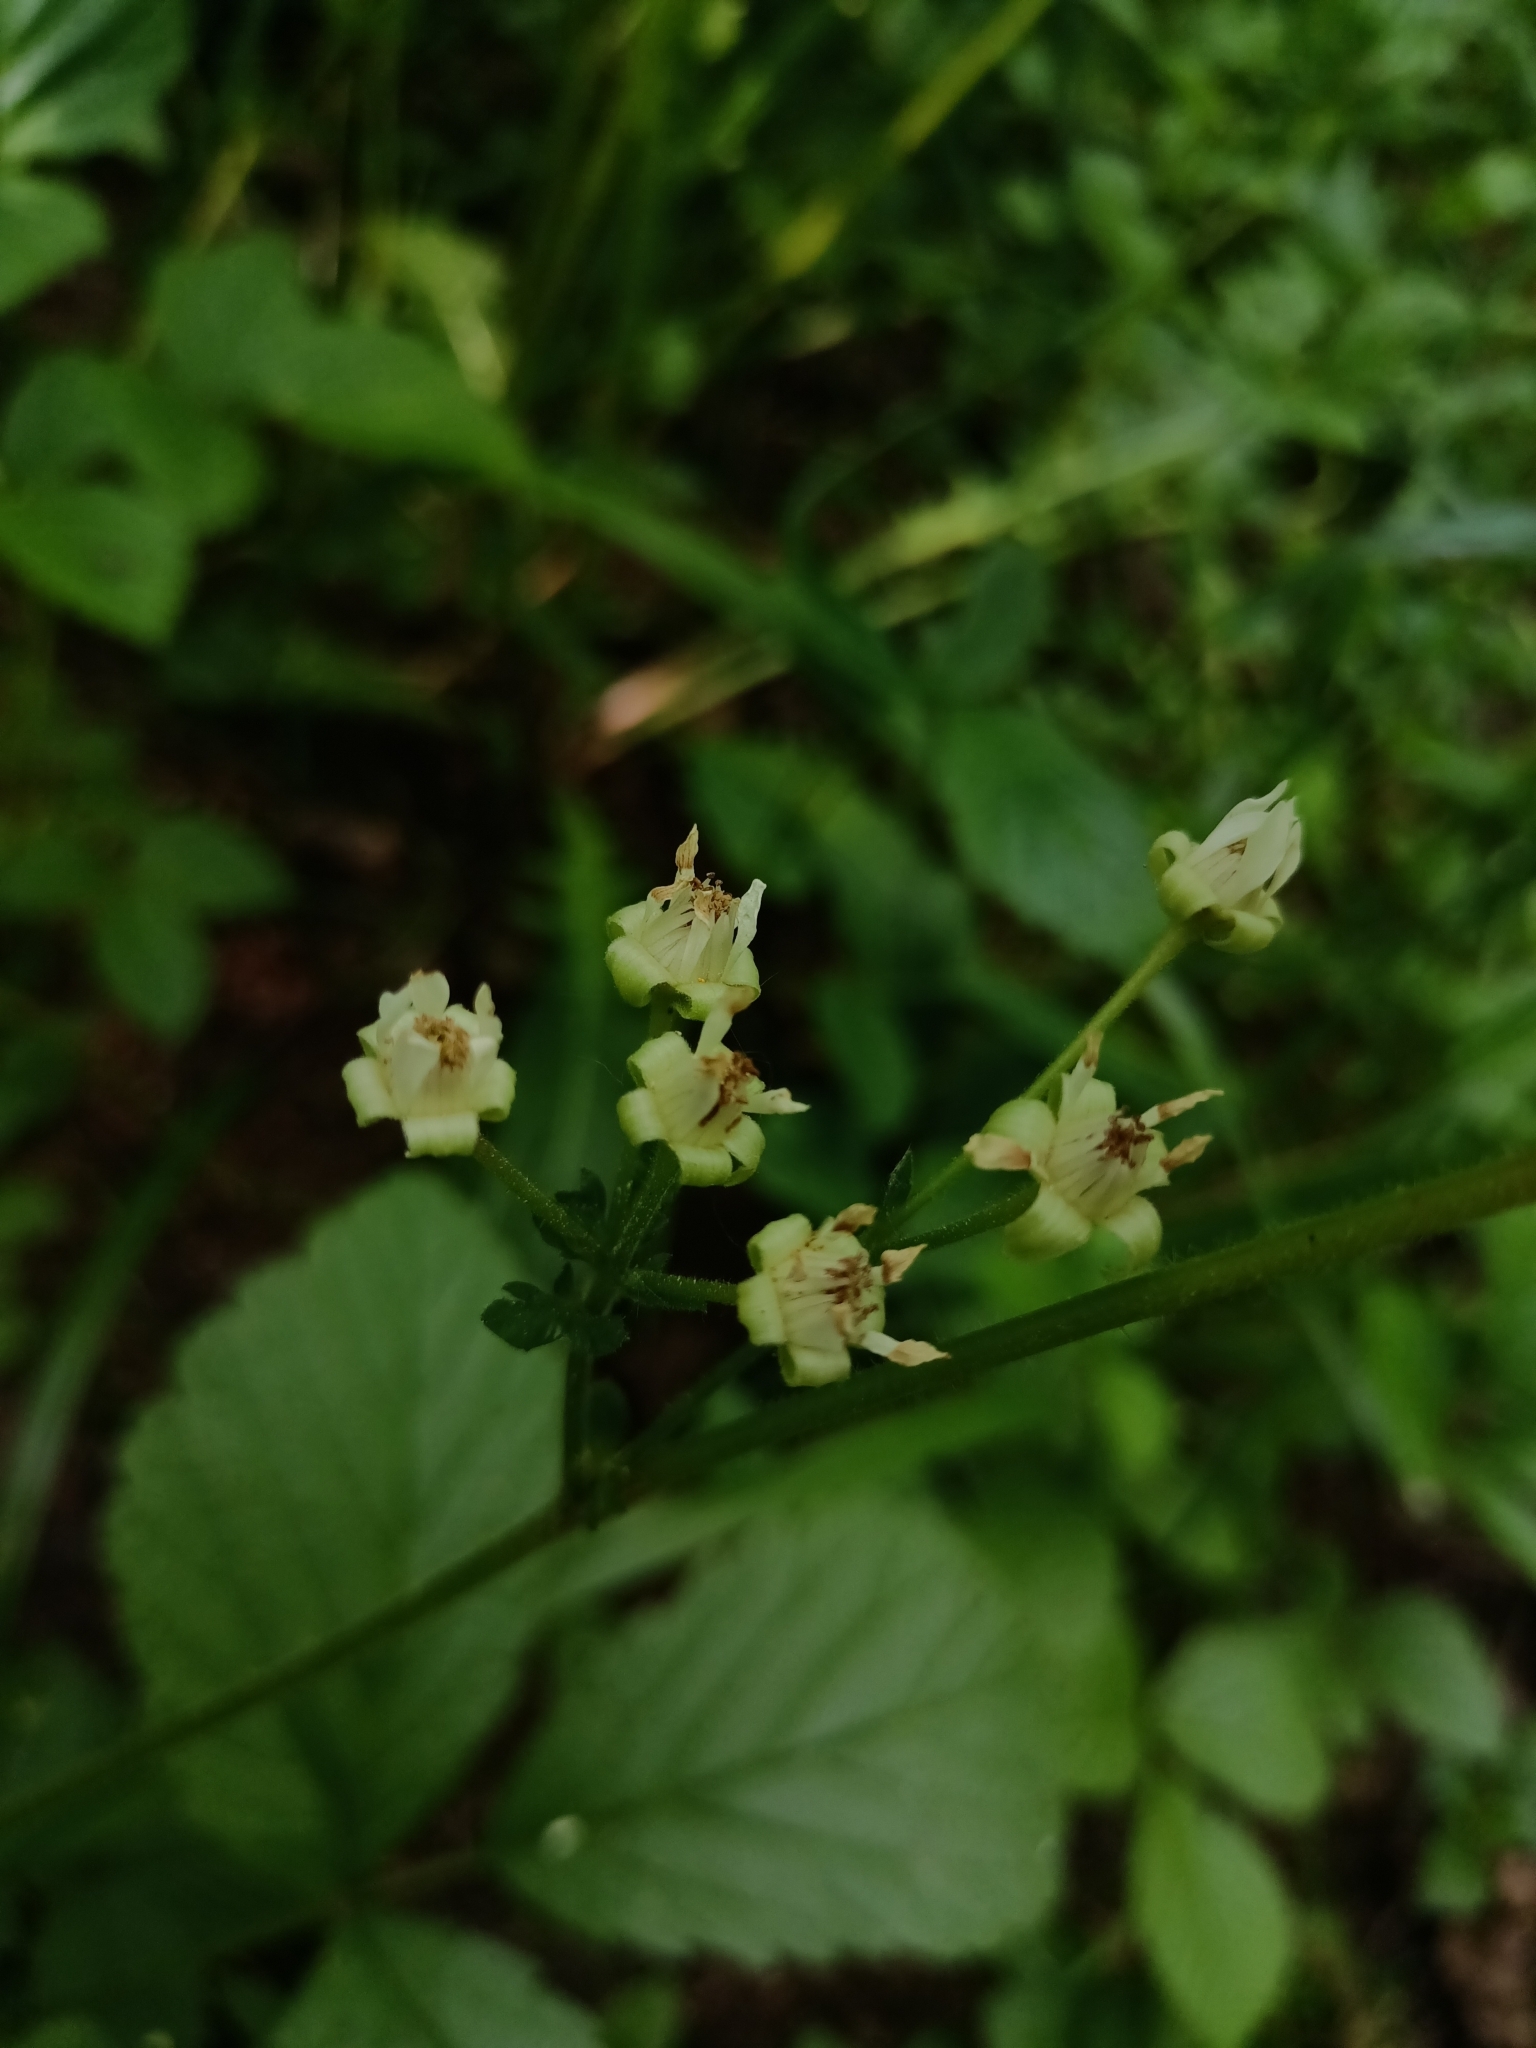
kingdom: Plantae
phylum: Tracheophyta
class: Magnoliopsida
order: Rosales
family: Rosaceae
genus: Rubus
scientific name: Rubus saxatilis
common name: Stone bramble
